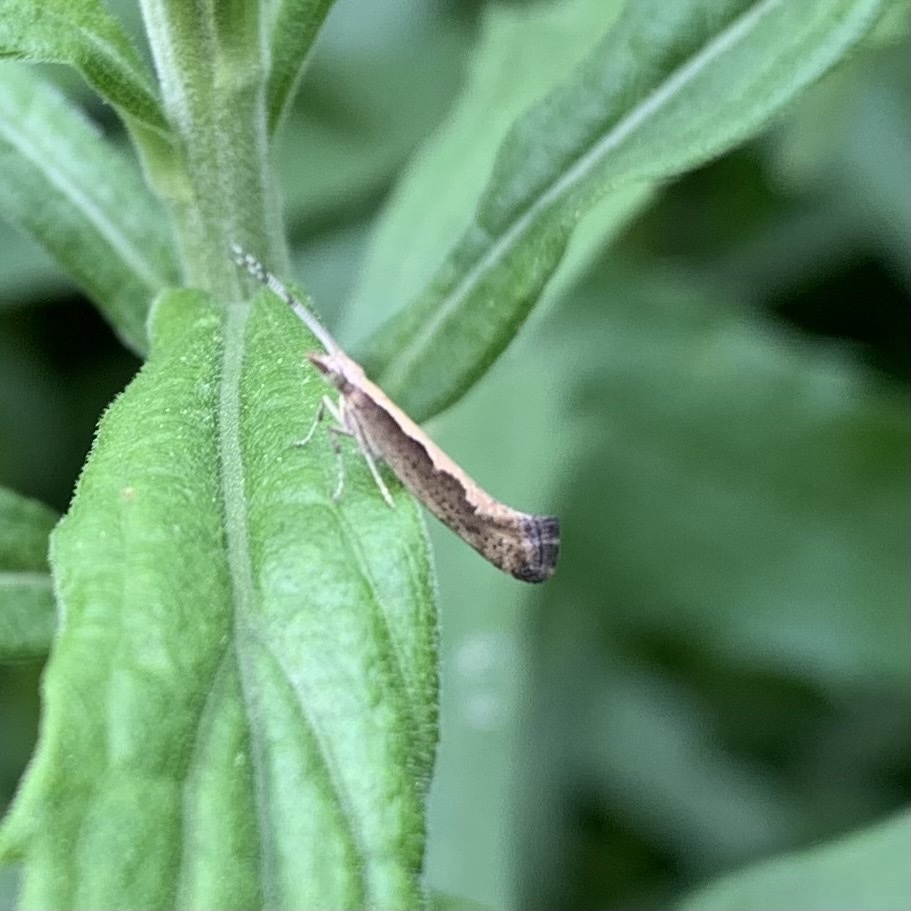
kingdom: Animalia
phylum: Arthropoda
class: Insecta
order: Lepidoptera
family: Plutellidae
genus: Plutella
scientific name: Plutella xylostella
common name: Diamond-back moth
